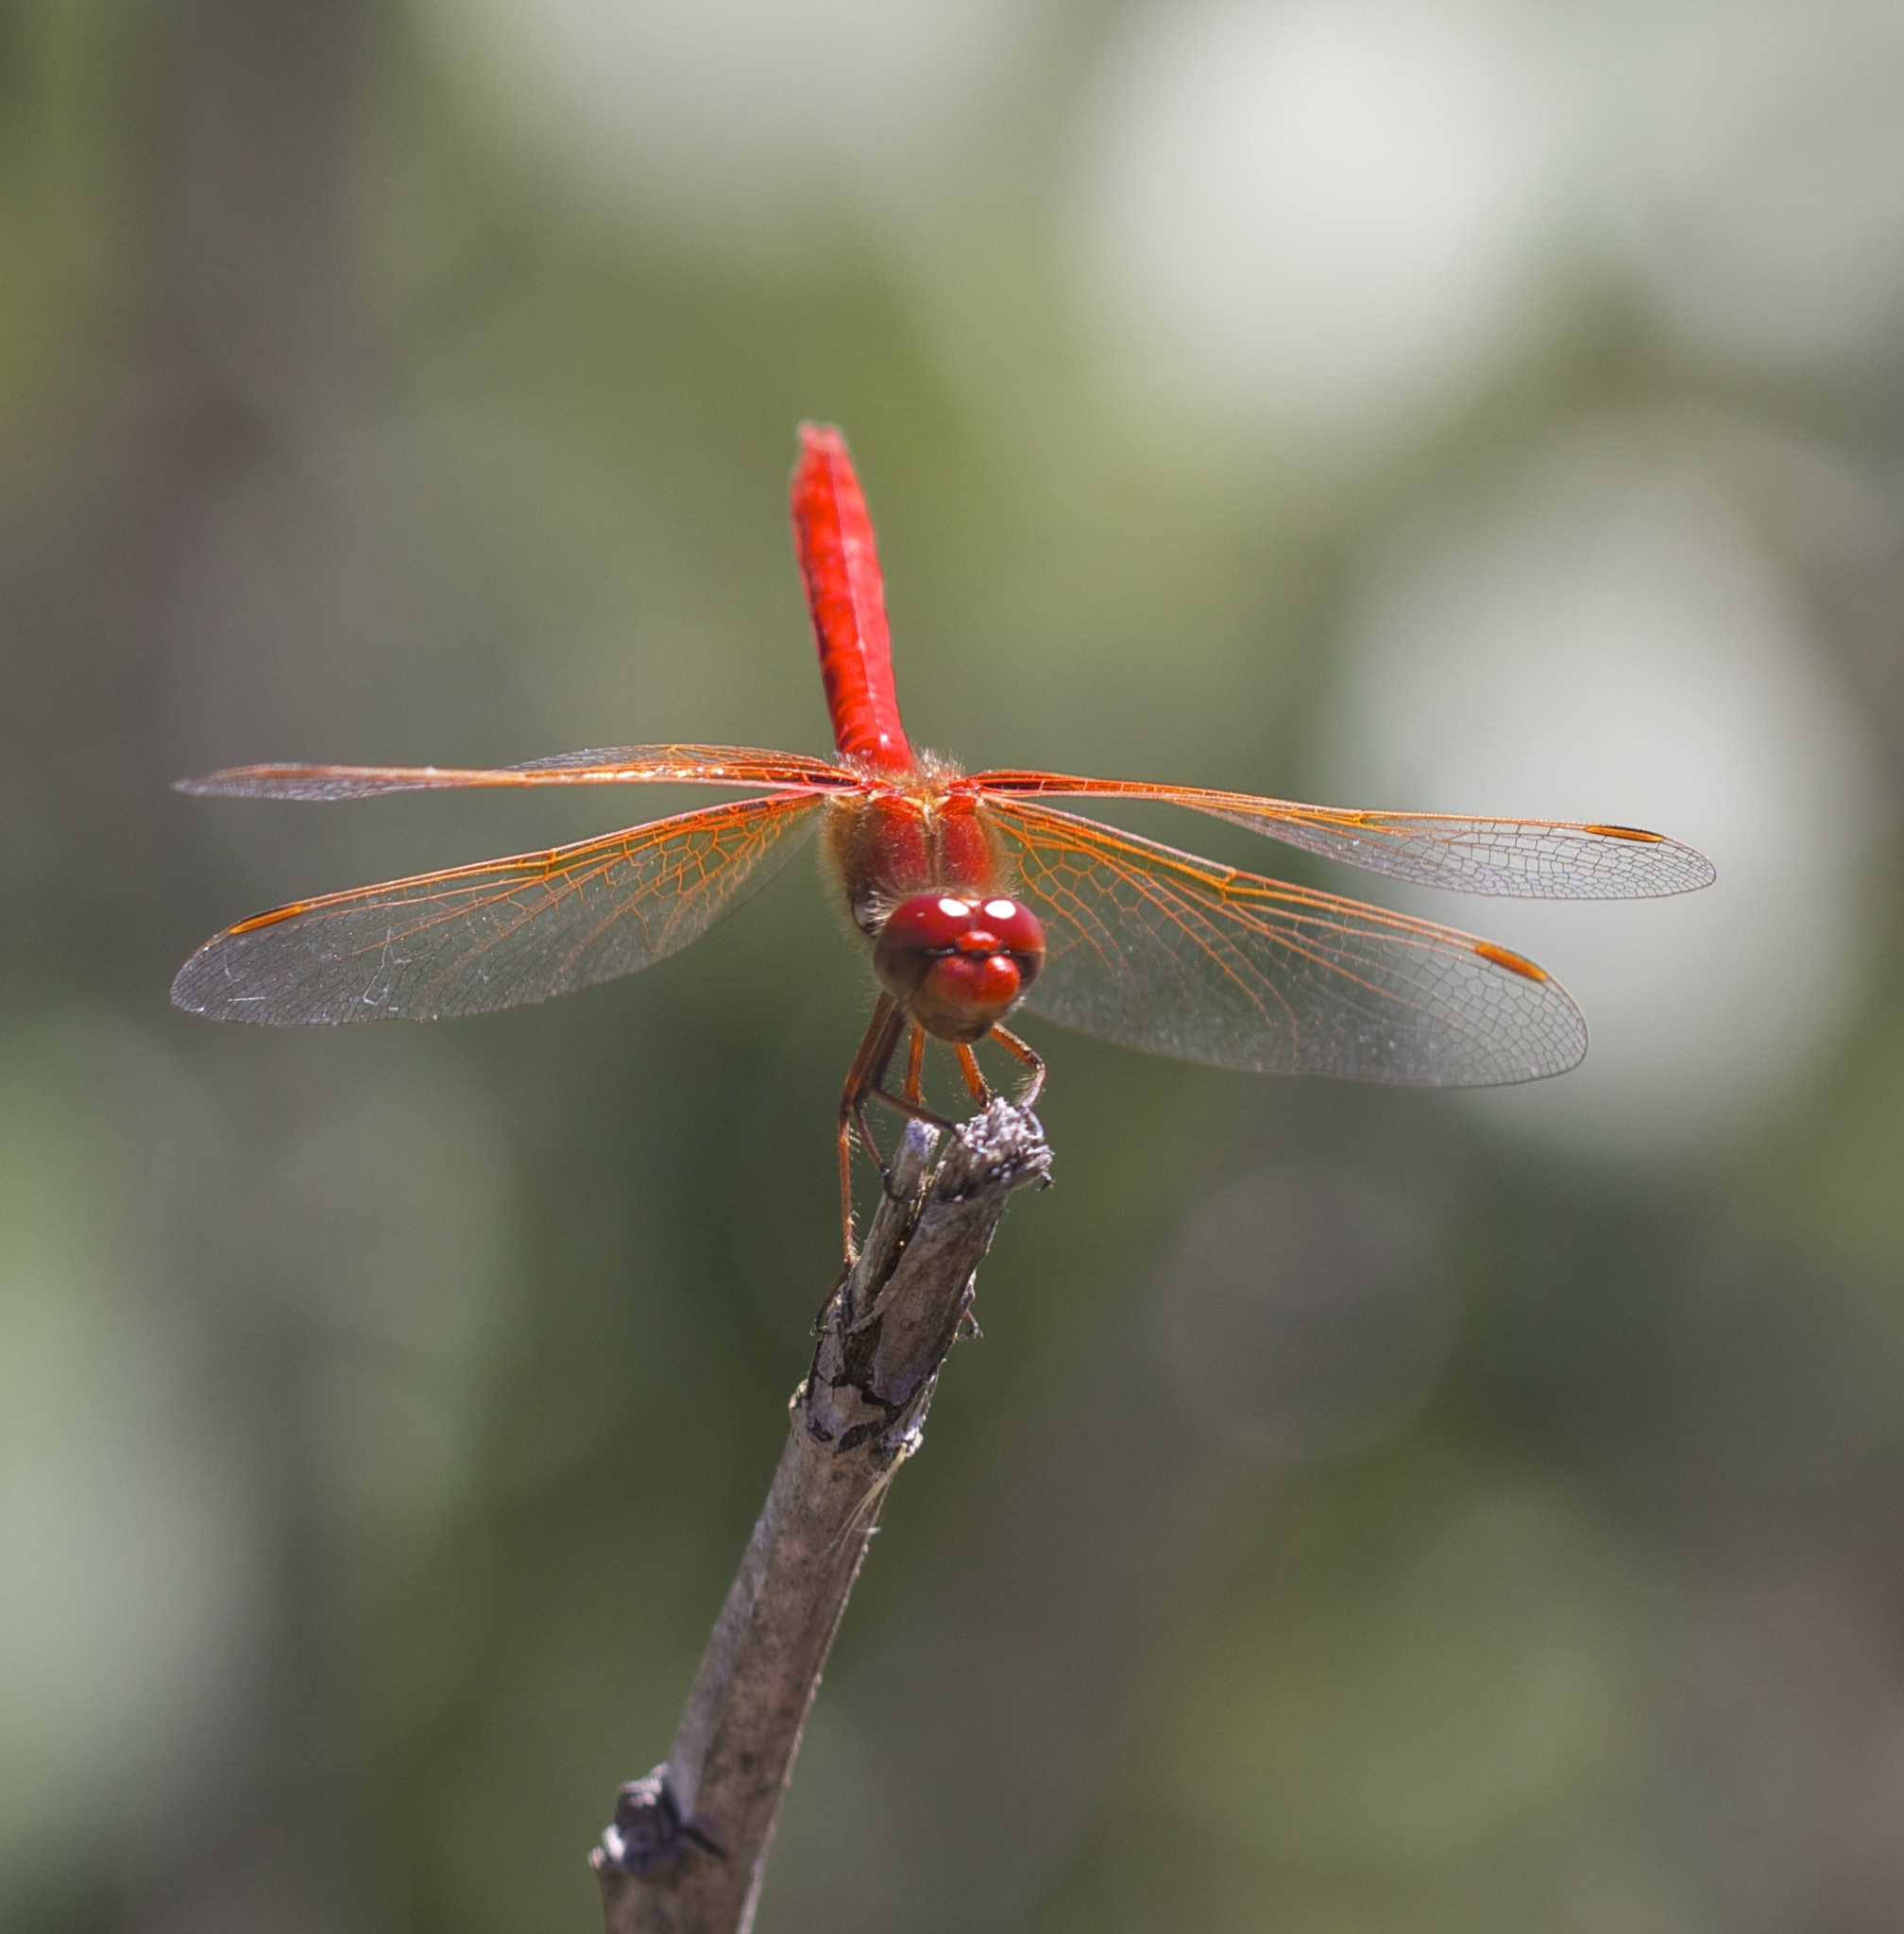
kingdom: Animalia
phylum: Arthropoda
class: Insecta
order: Odonata
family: Libellulidae
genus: Sympetrum
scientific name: Sympetrum illotum
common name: Cardinal meadowhawk
